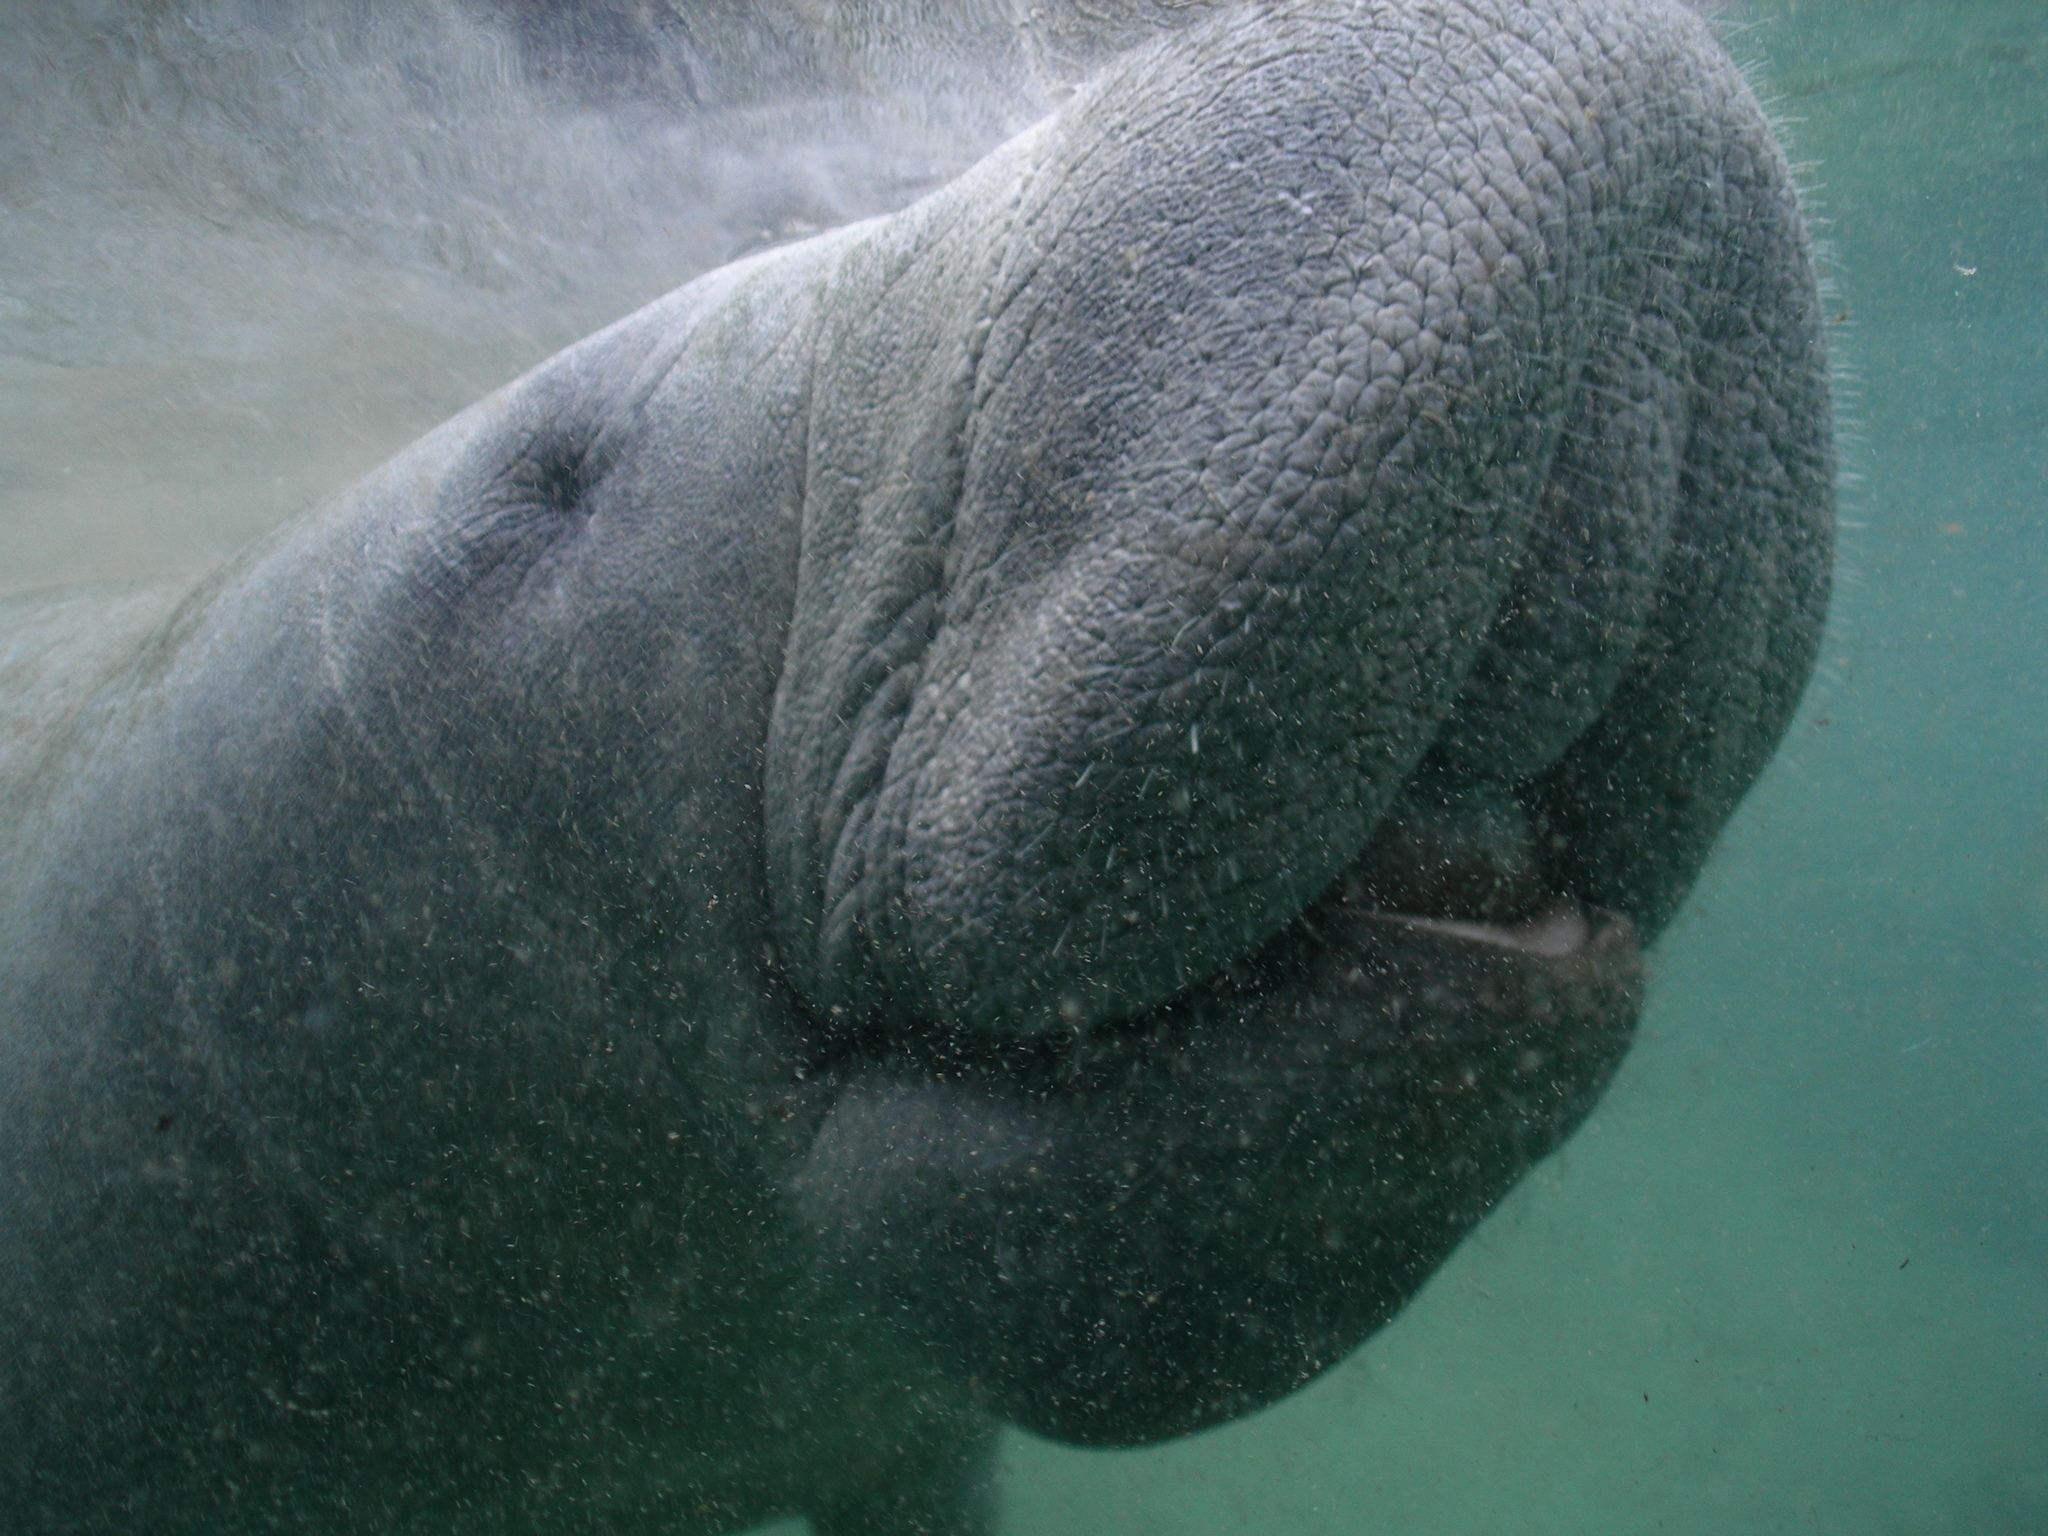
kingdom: Animalia
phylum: Chordata
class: Mammalia
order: Sirenia
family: Trichechidae
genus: Trichechus
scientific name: Trichechus manatus
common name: West indian manatee
